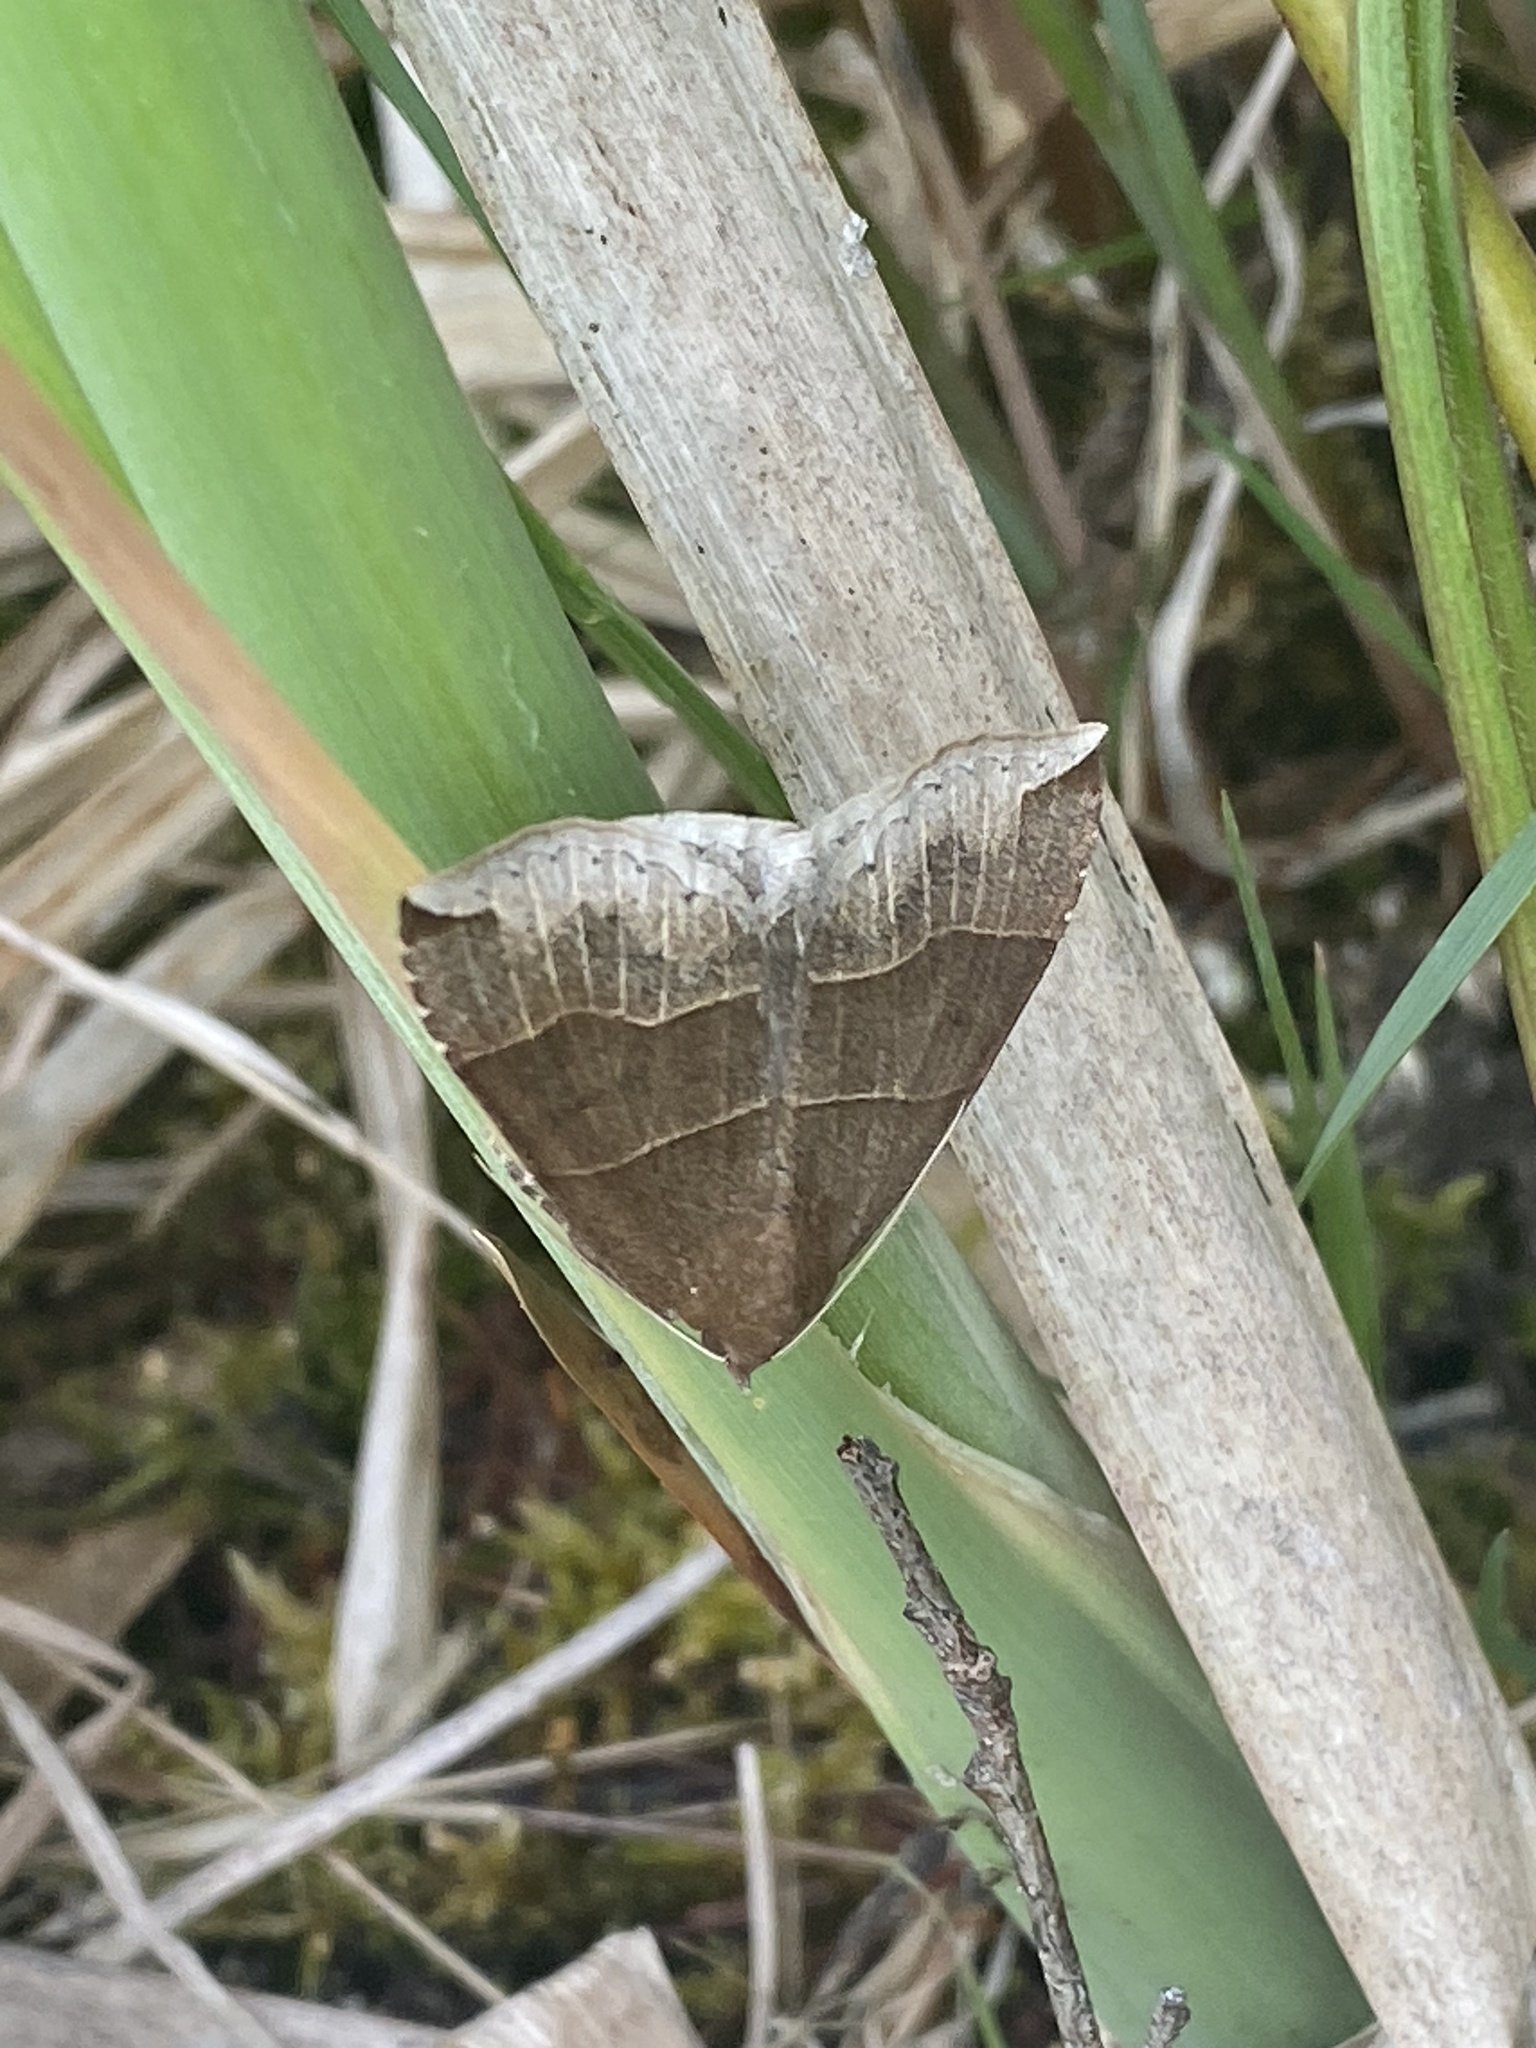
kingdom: Animalia
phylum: Arthropoda
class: Insecta
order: Lepidoptera
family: Erebidae
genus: Parallelia
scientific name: Parallelia bistriaris
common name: Maple looper moth
